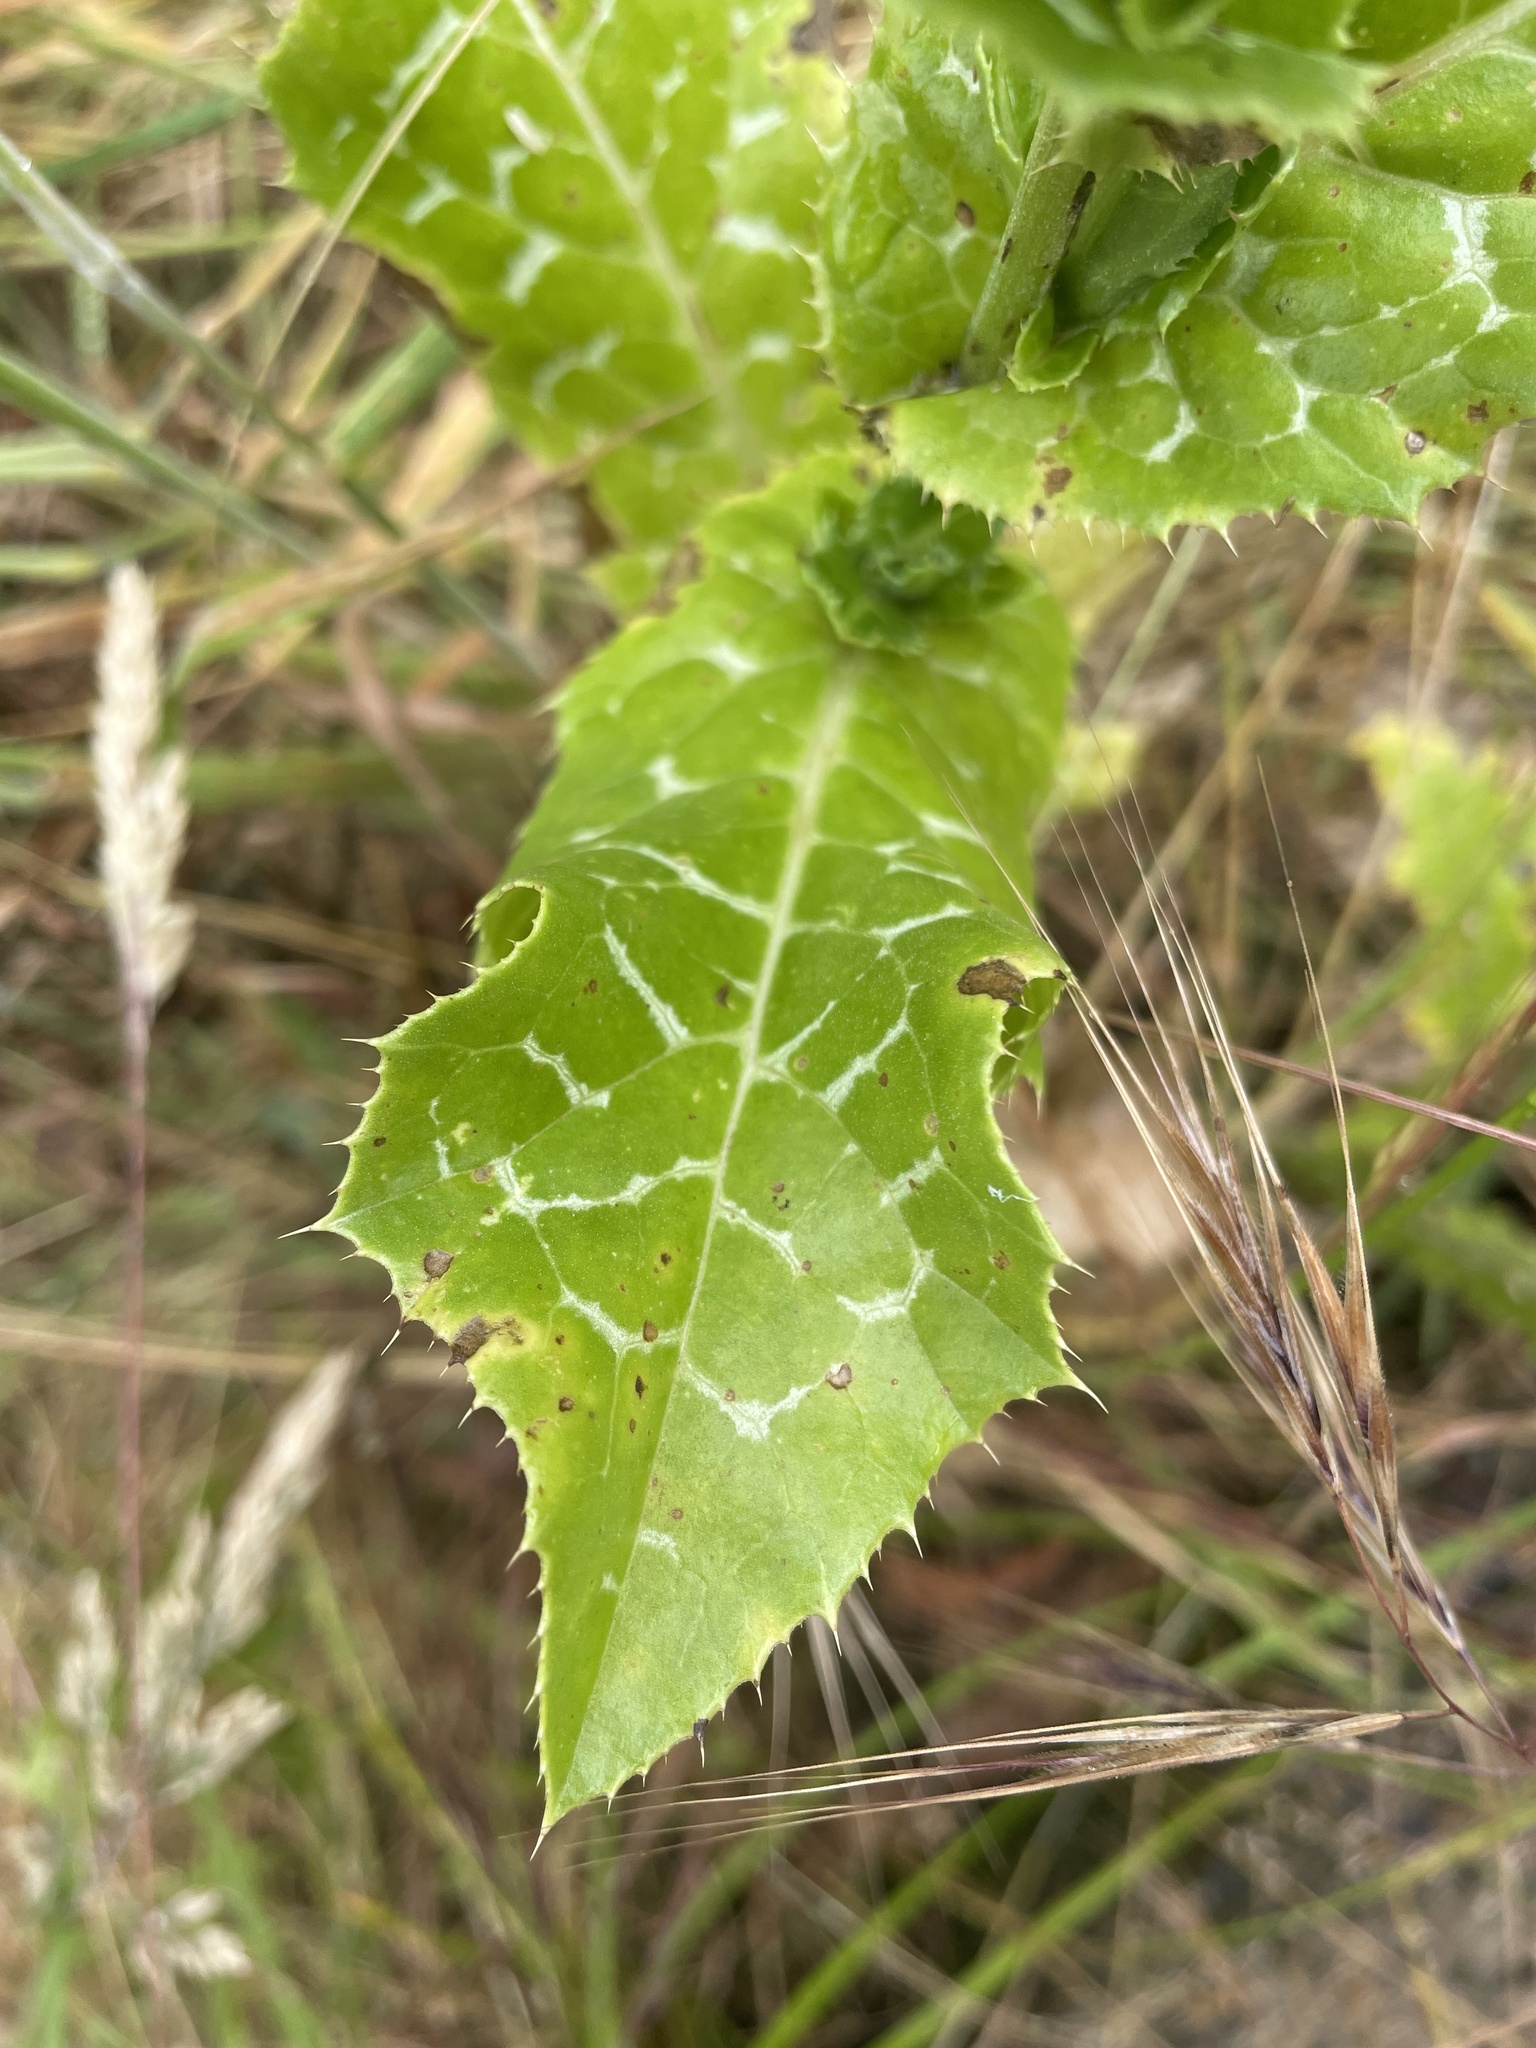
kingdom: Plantae
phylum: Tracheophyta
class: Magnoliopsida
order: Asterales
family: Asteraceae
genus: Silybum
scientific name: Silybum marianum
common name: Milk thistle
